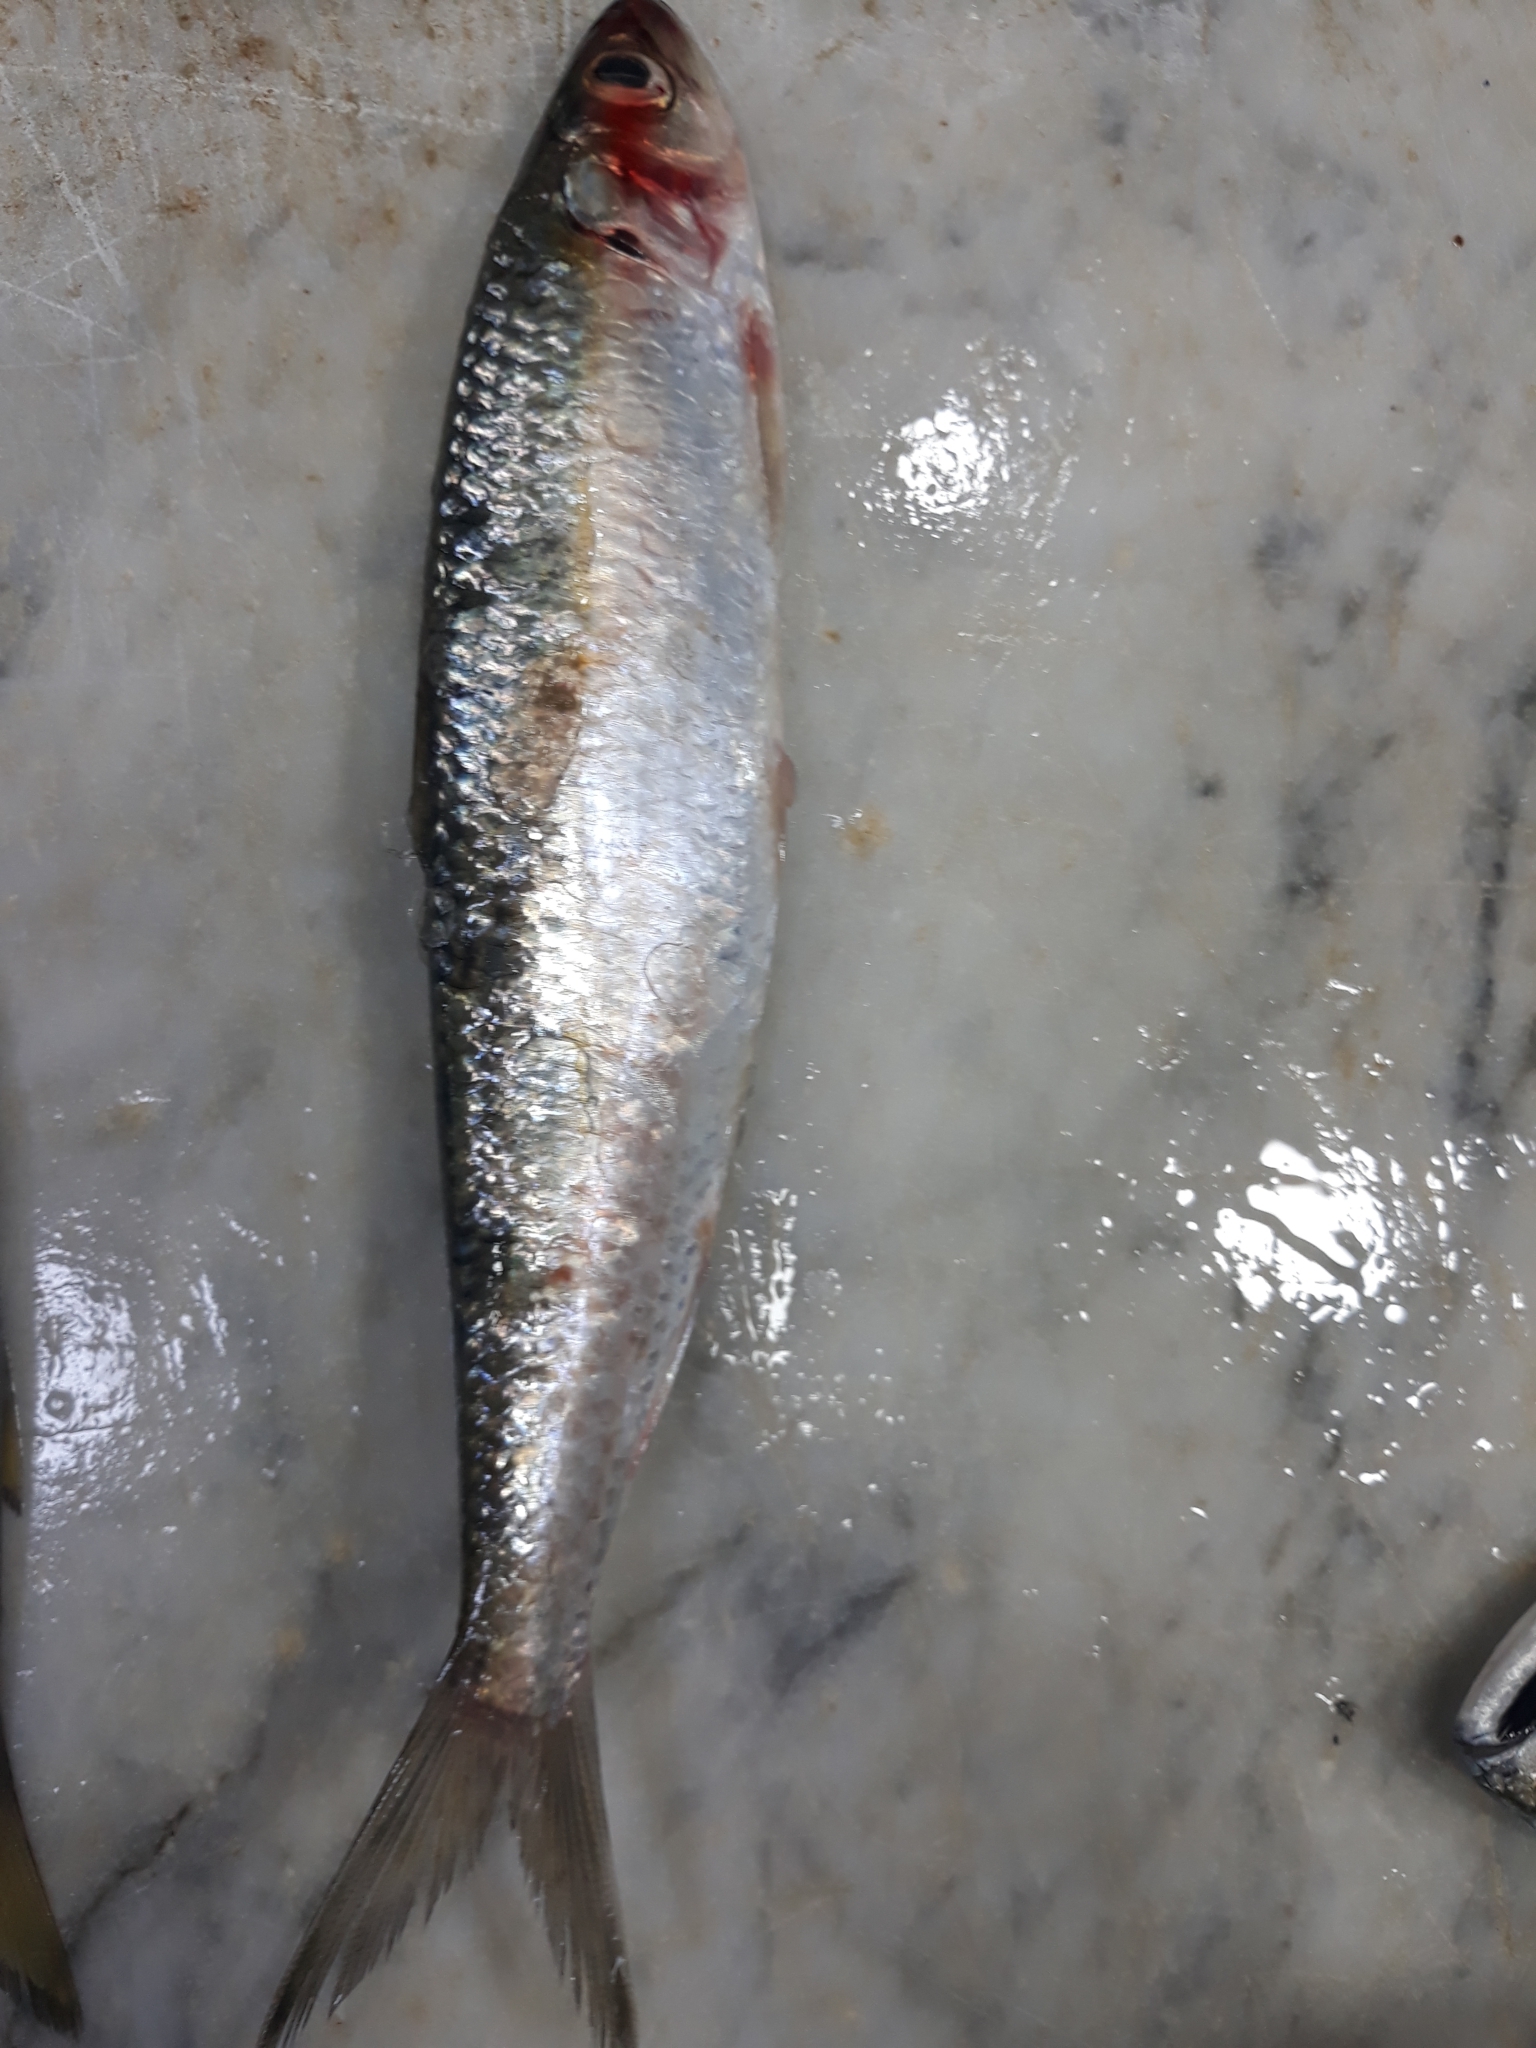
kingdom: Animalia
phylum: Chordata
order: Clupeiformes
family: Clupeidae
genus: Sardinella
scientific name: Sardinella aurita
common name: Round sardinella
